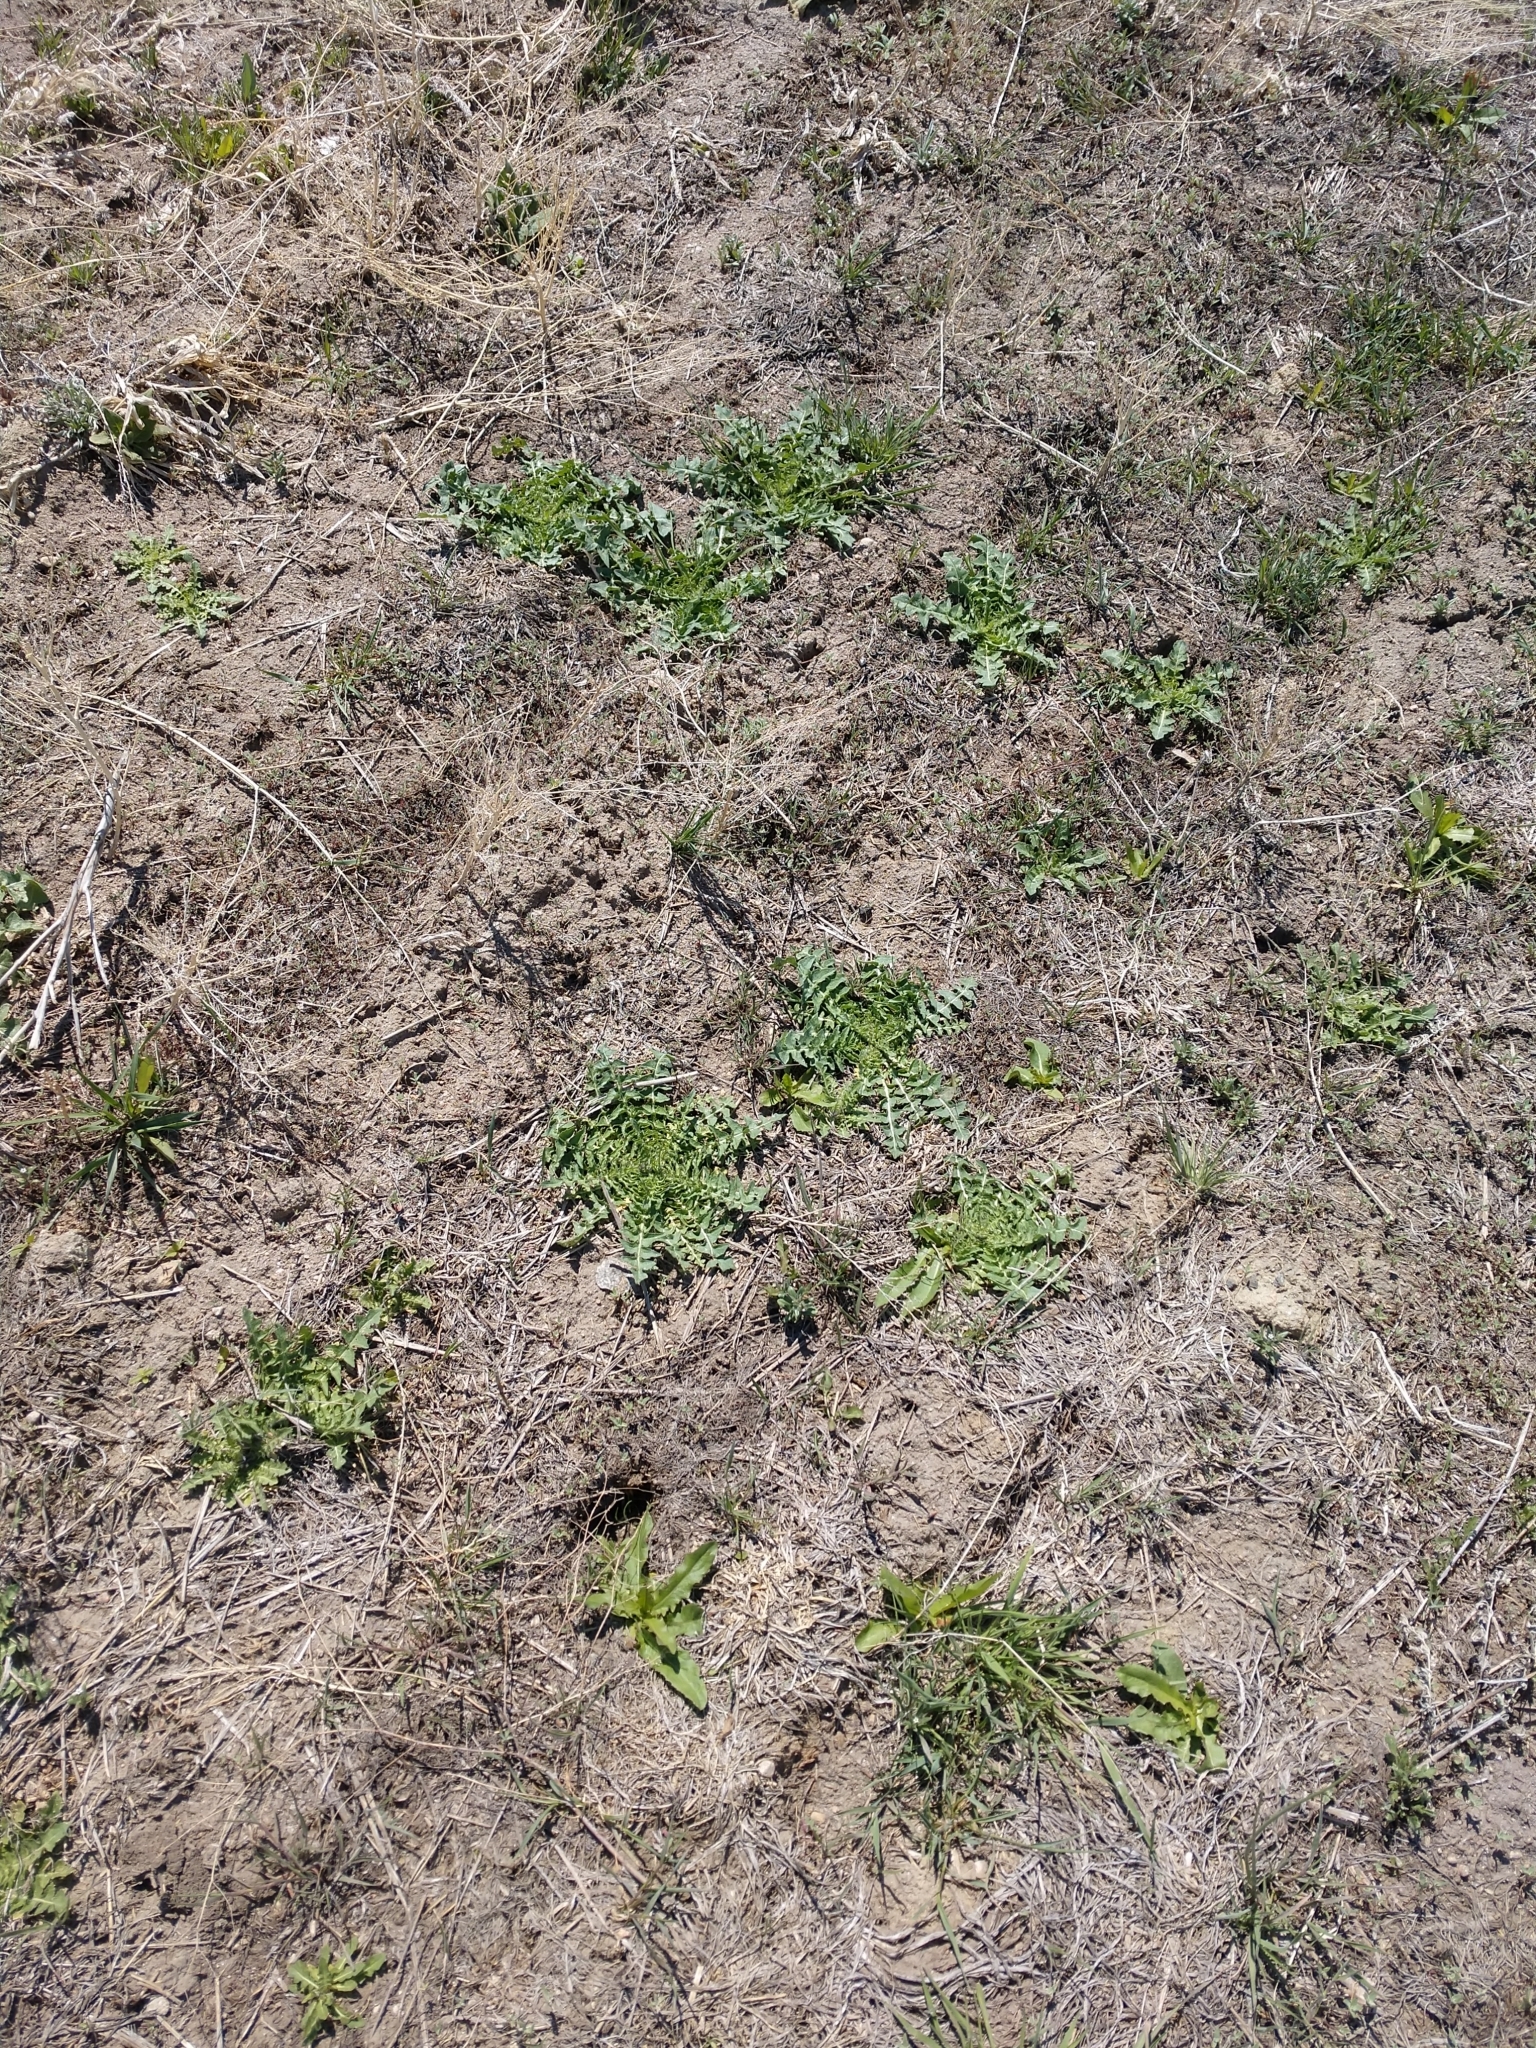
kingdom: Plantae
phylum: Tracheophyta
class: Magnoliopsida
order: Brassicales
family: Brassicaceae
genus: Sisymbrium
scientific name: Sisymbrium altissimum
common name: Tall rocket
